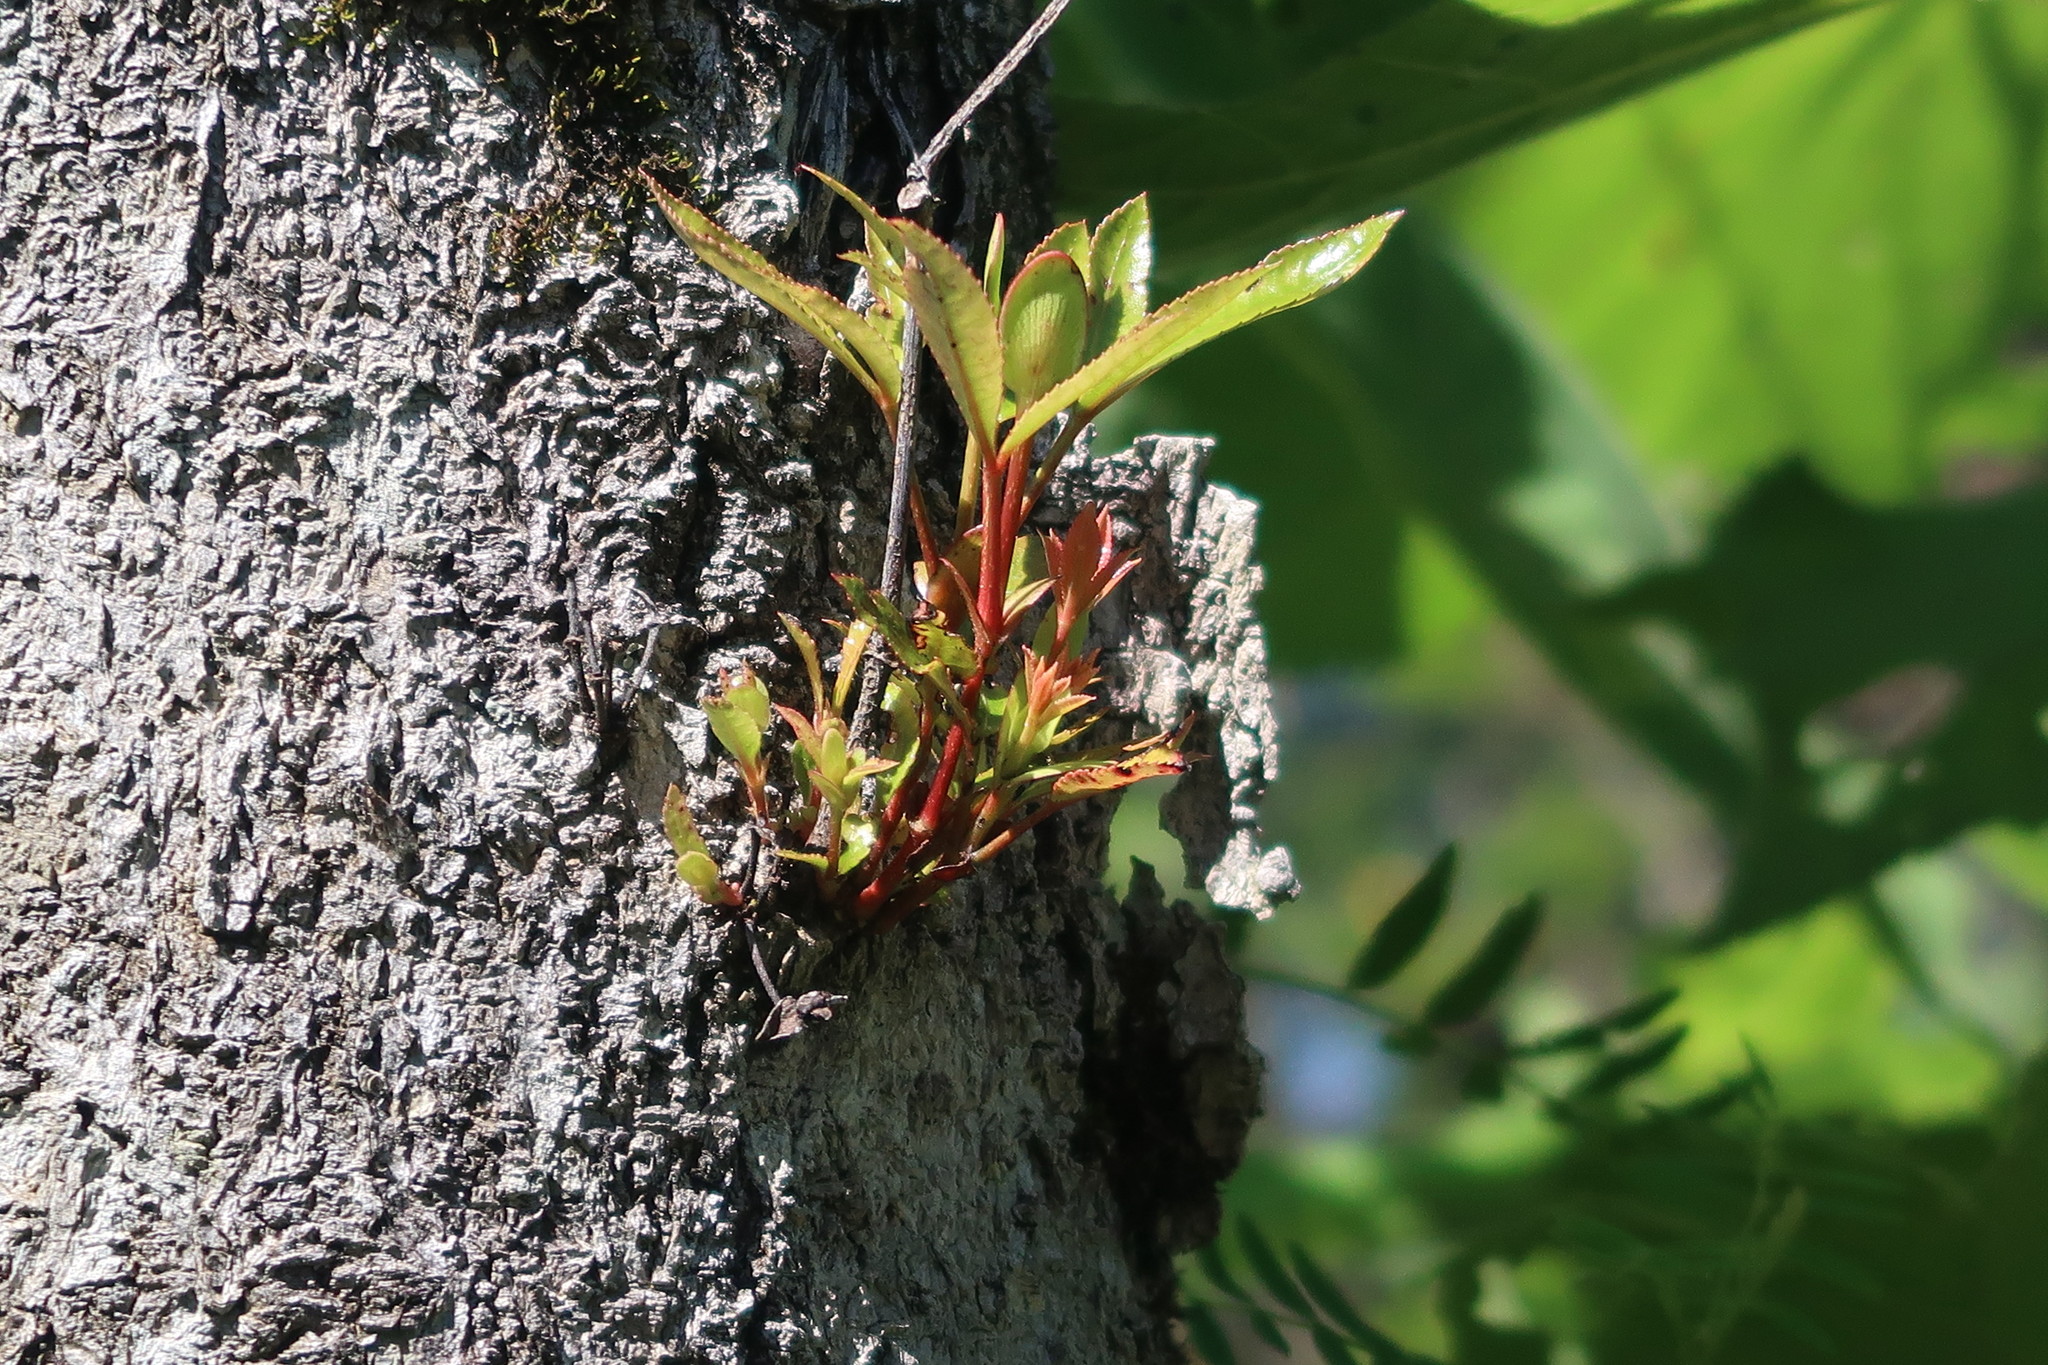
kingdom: Plantae
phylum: Tracheophyta
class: Magnoliopsida
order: Oxalidales
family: Cunoniaceae
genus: Cunonia
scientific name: Cunonia capensis
